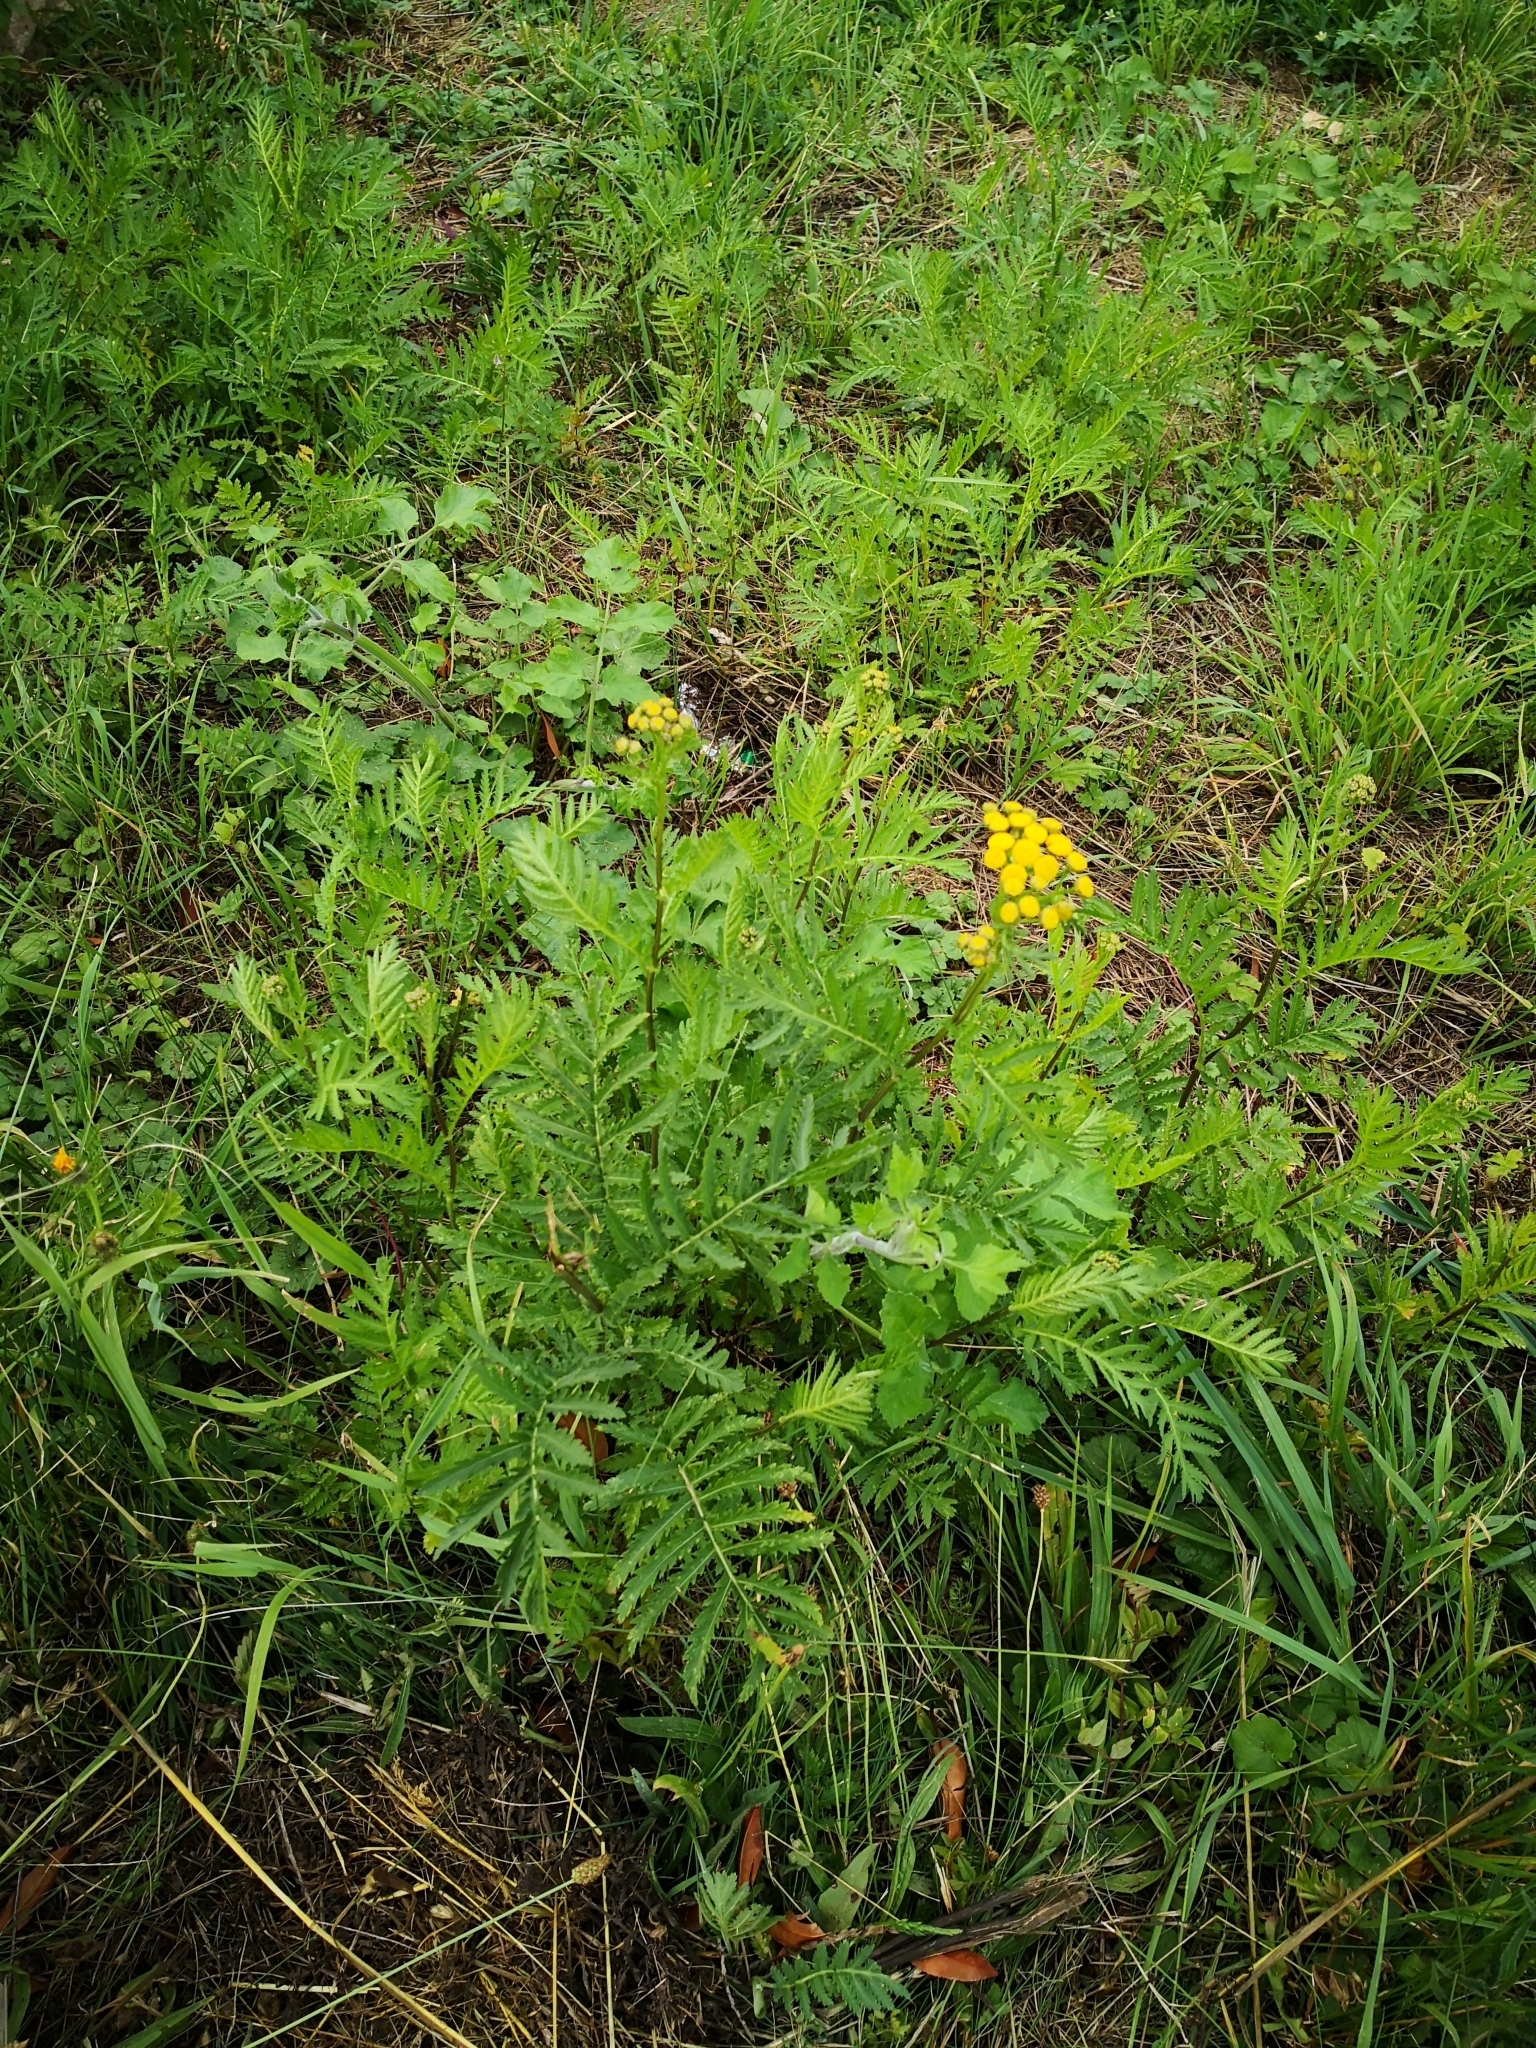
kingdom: Plantae
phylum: Tracheophyta
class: Magnoliopsida
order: Asterales
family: Asteraceae
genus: Tanacetum
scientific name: Tanacetum vulgare
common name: Common tansy
